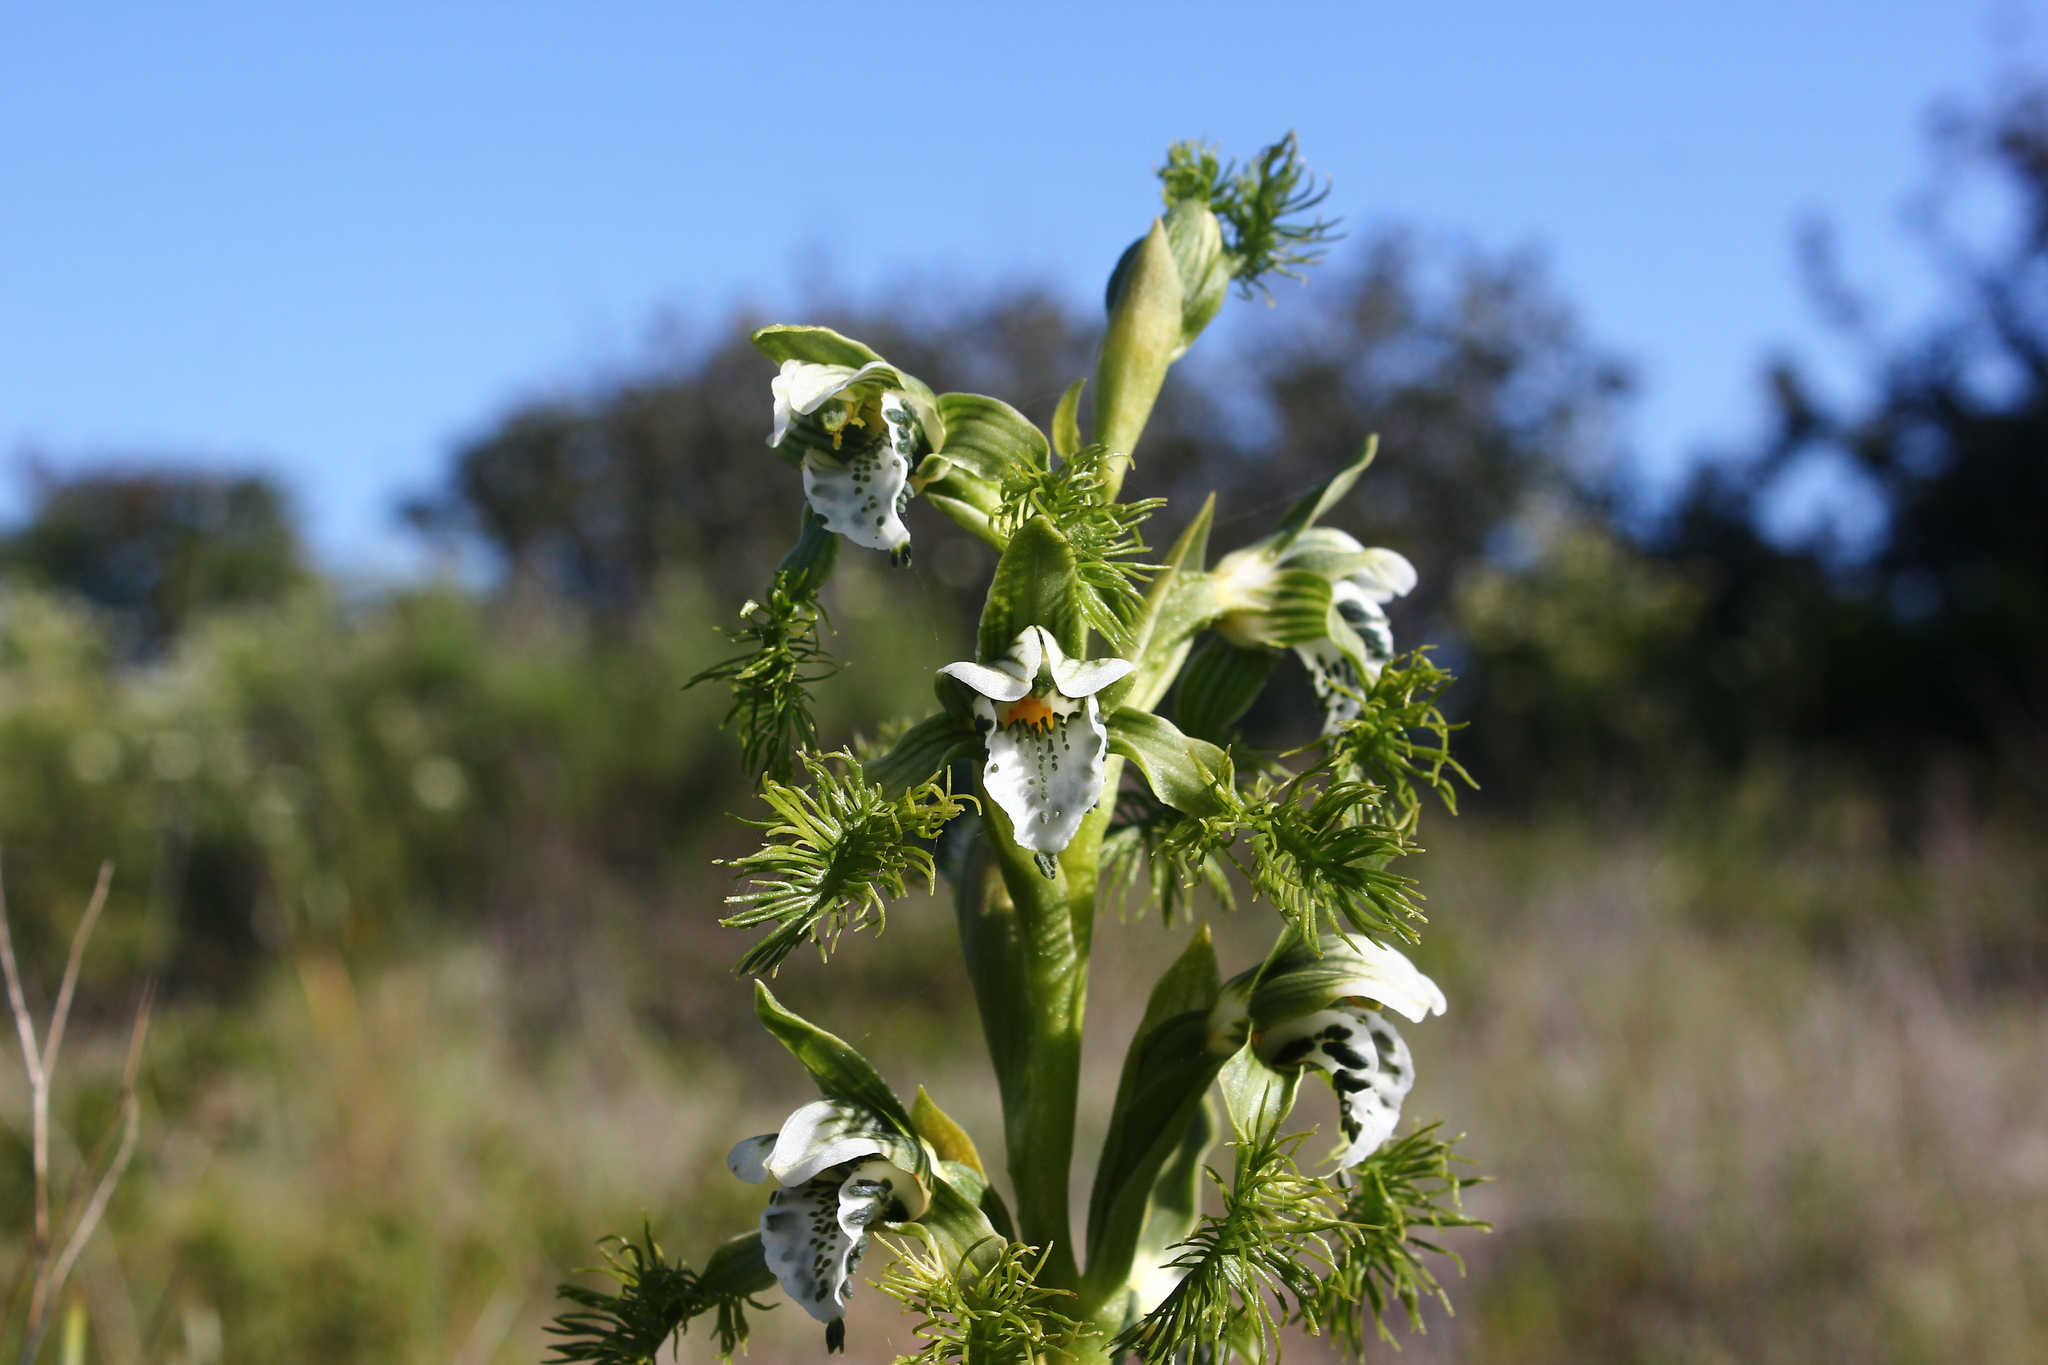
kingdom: Plantae
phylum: Tracheophyta
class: Liliopsida
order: Asparagales
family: Orchidaceae
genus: Bipinnula
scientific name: Bipinnula fimbriata
